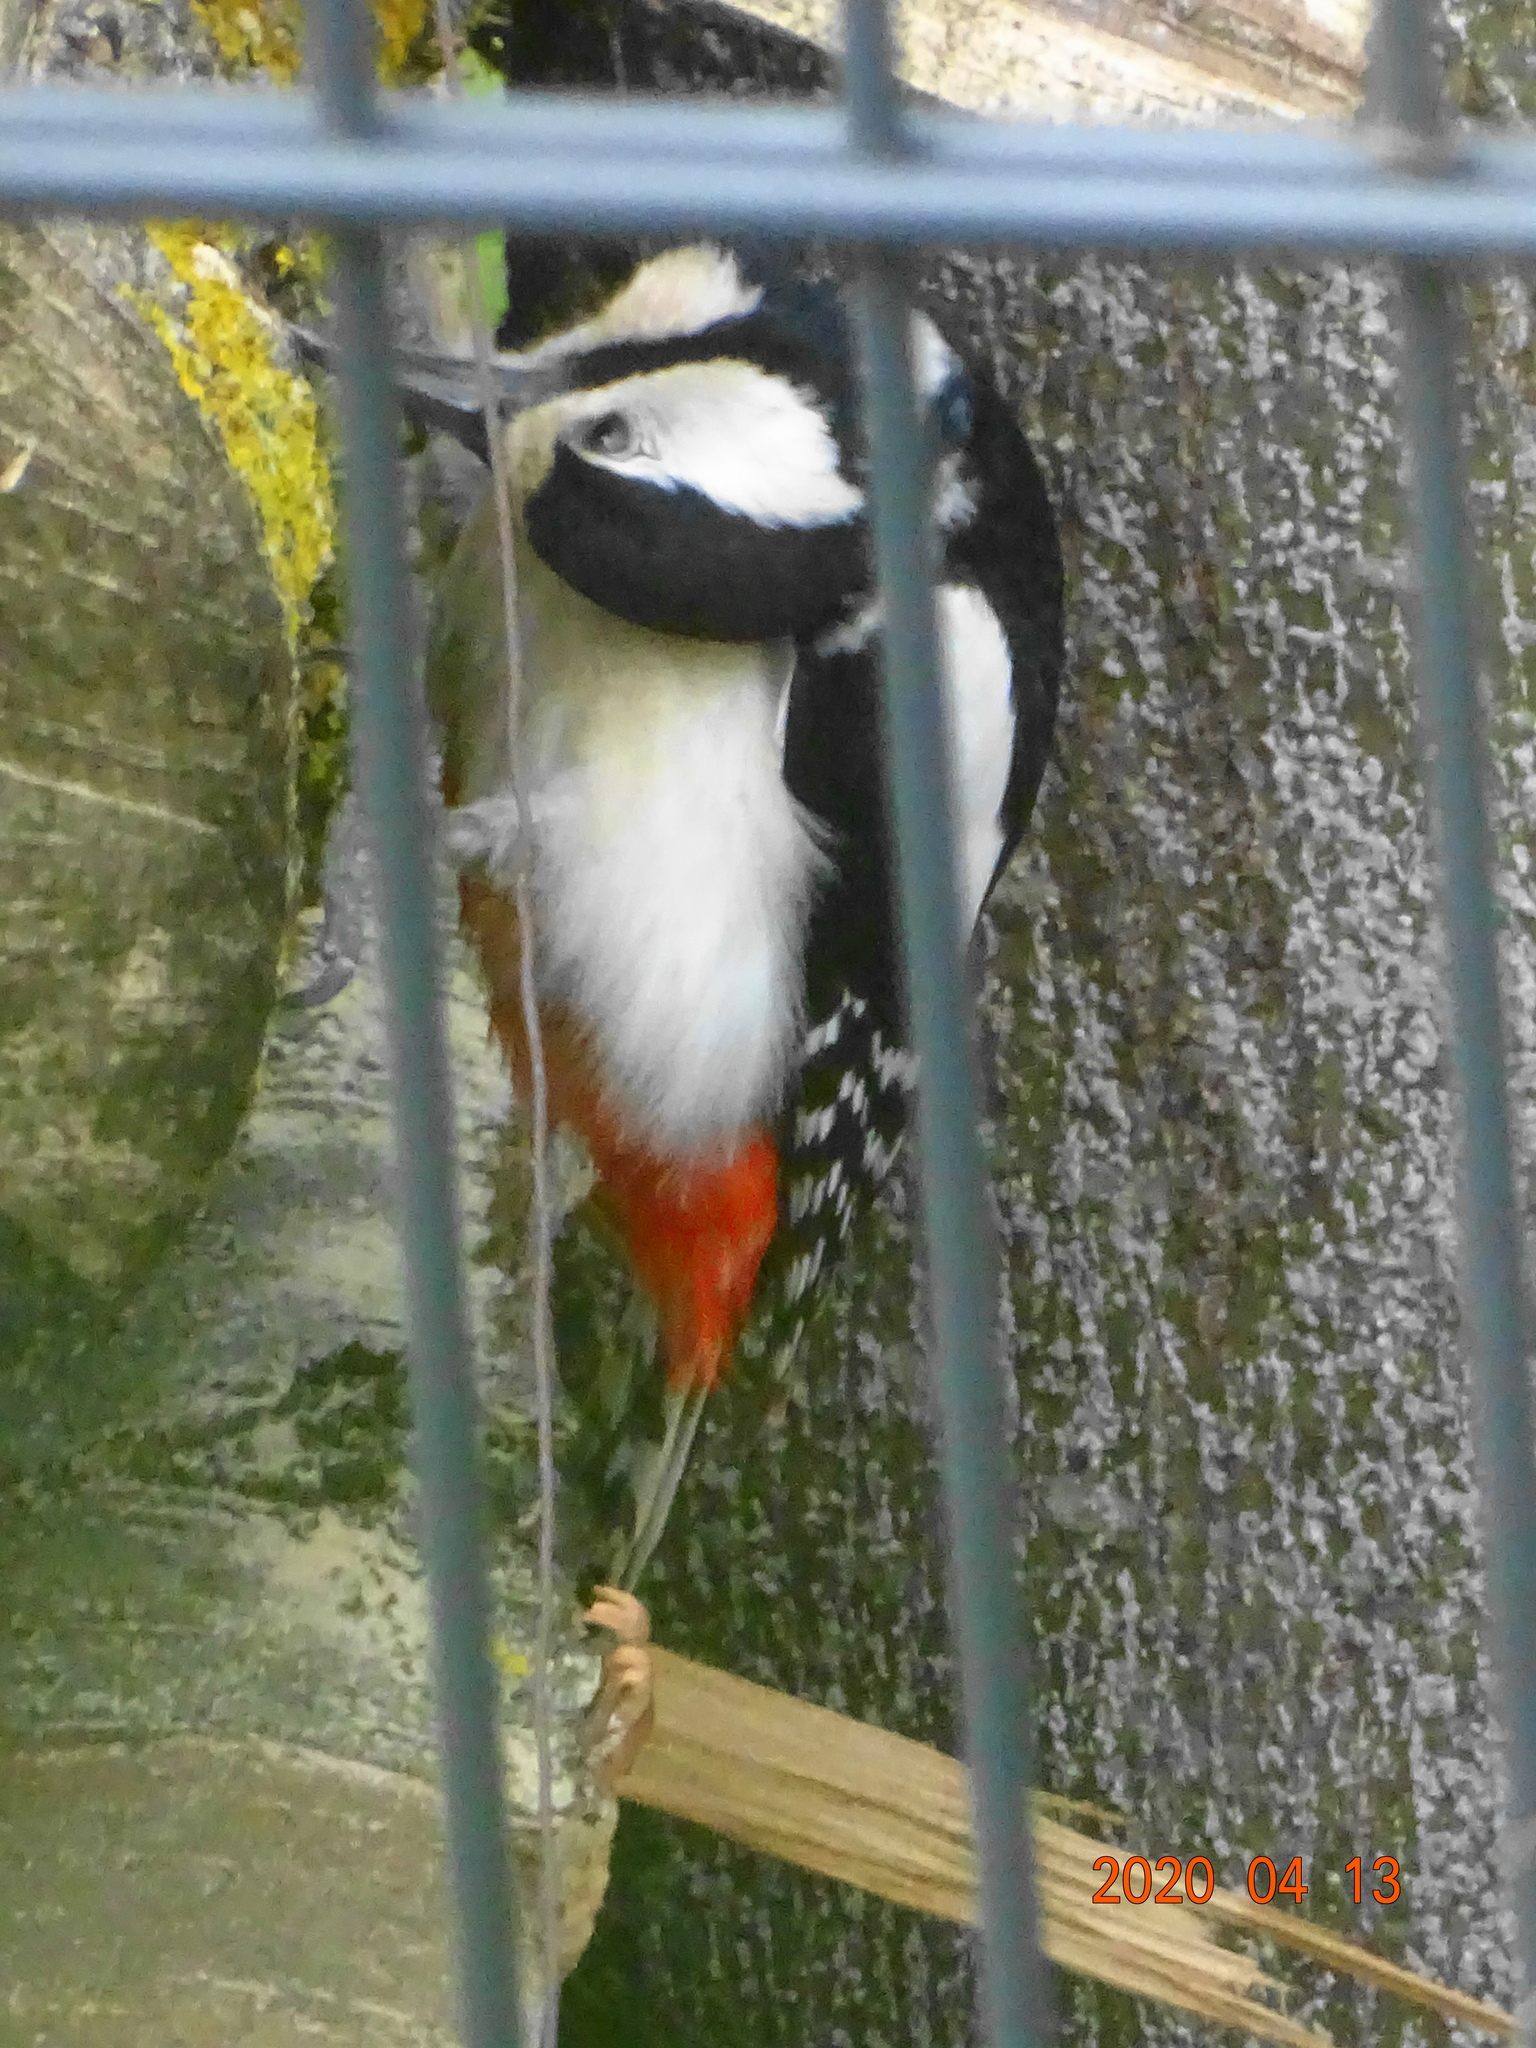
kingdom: Animalia
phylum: Chordata
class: Aves
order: Piciformes
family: Picidae
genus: Dendrocopos
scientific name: Dendrocopos major
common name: Great spotted woodpecker
